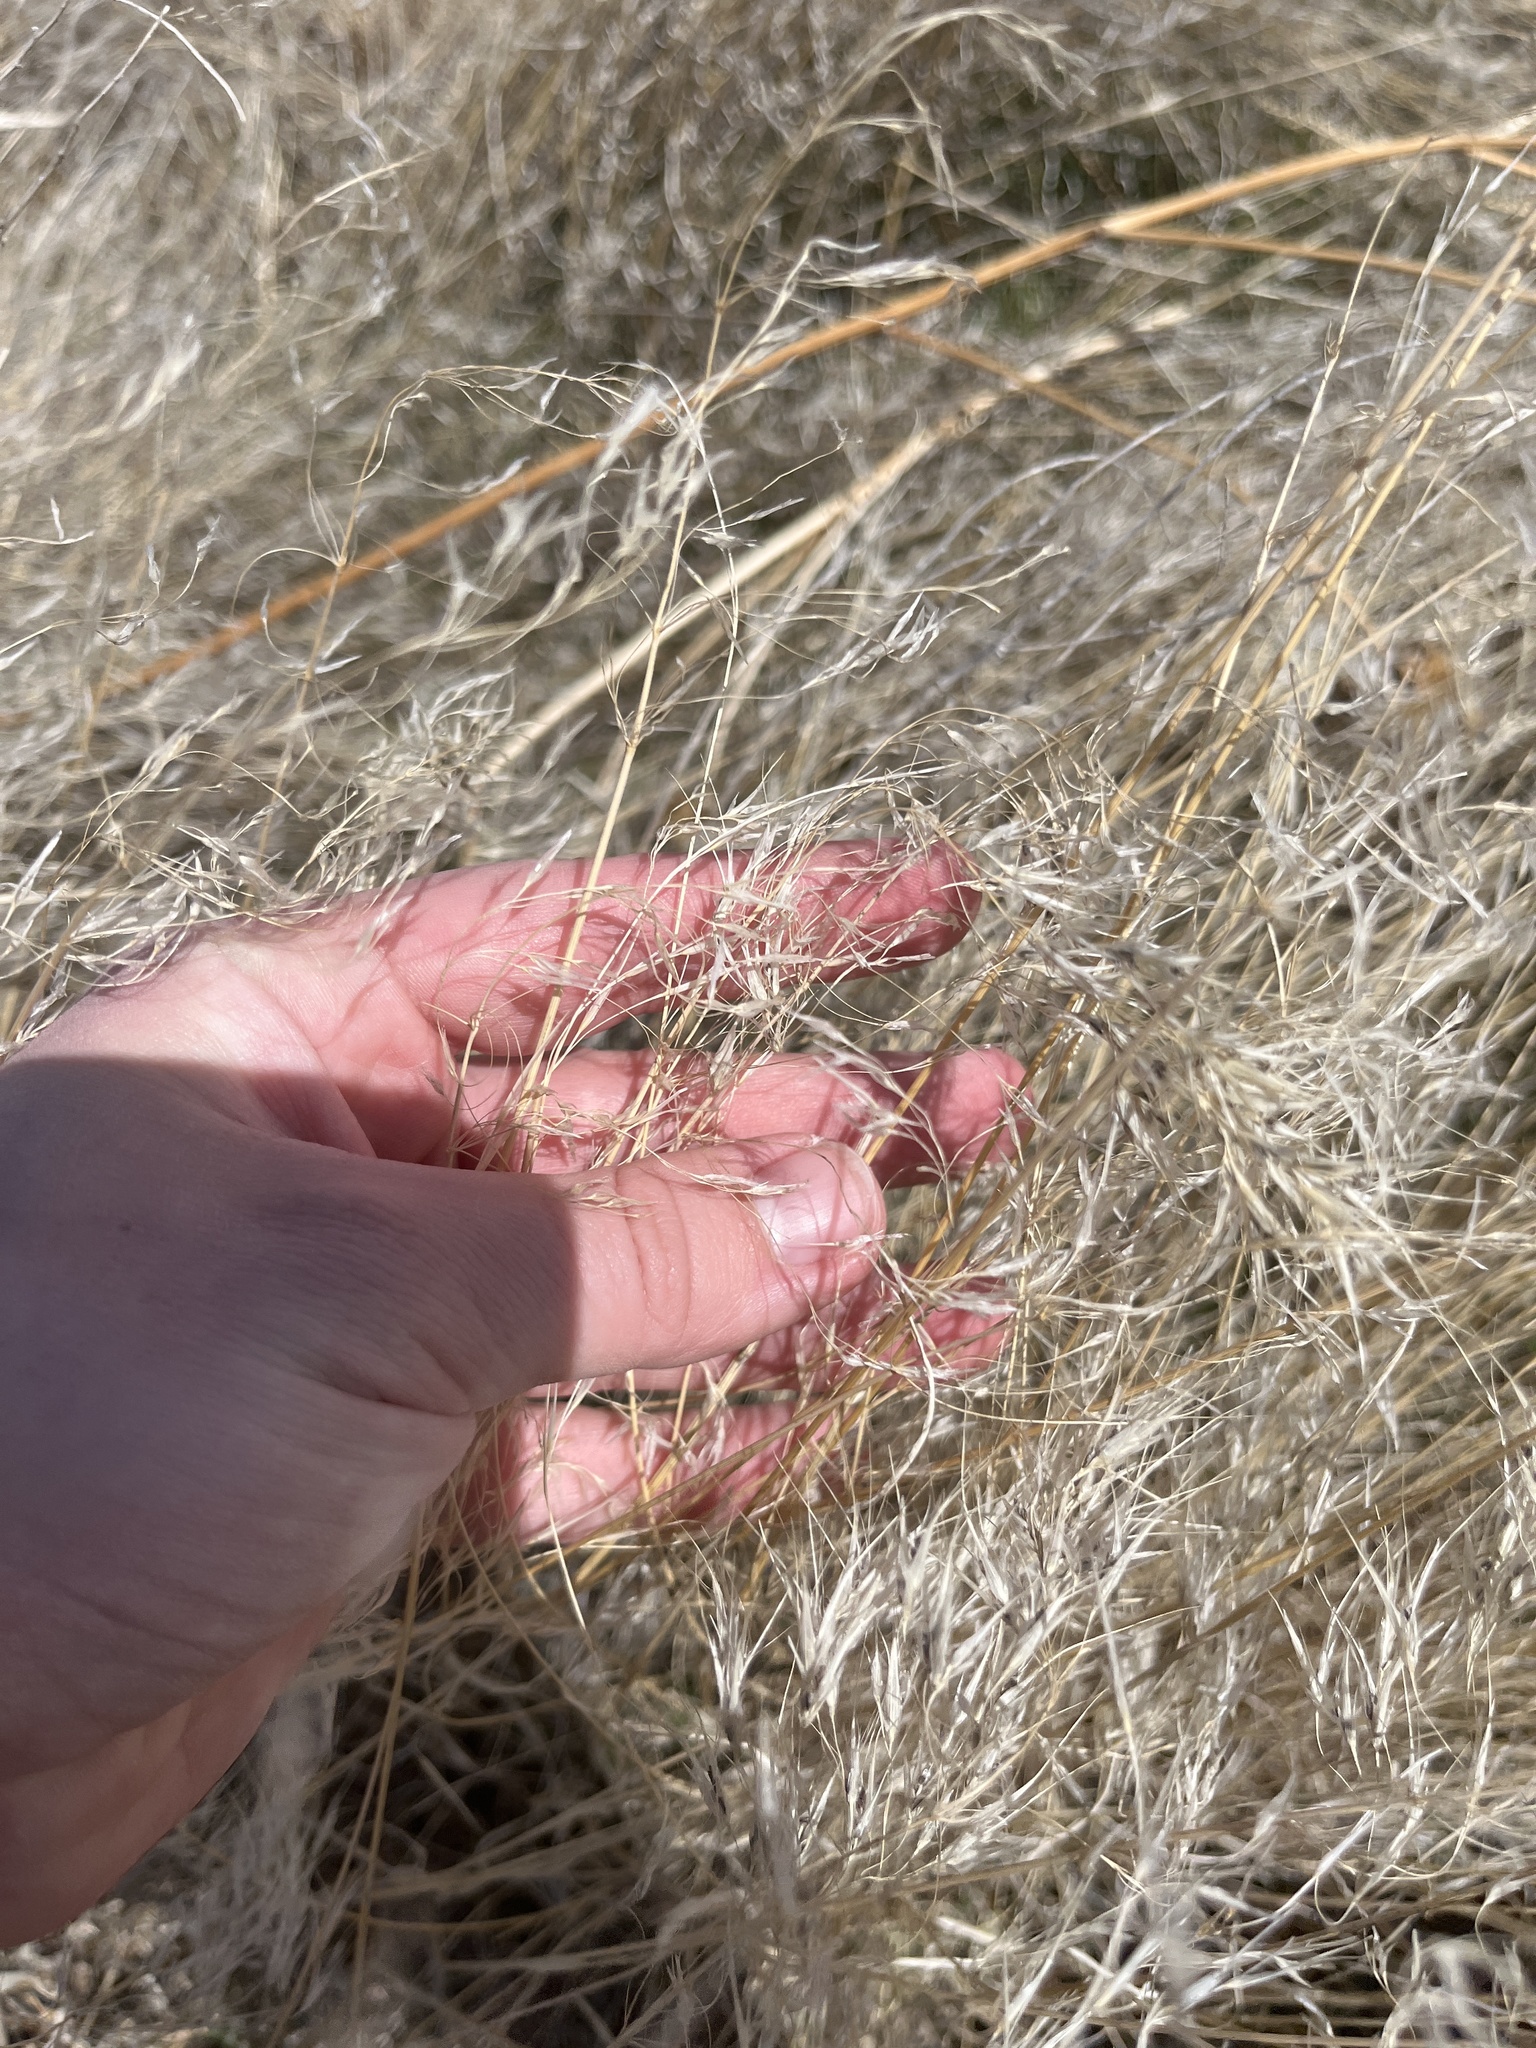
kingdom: Plantae
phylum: Tracheophyta
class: Liliopsida
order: Poales
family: Poaceae
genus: Bromus
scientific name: Bromus tectorum
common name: Cheatgrass
